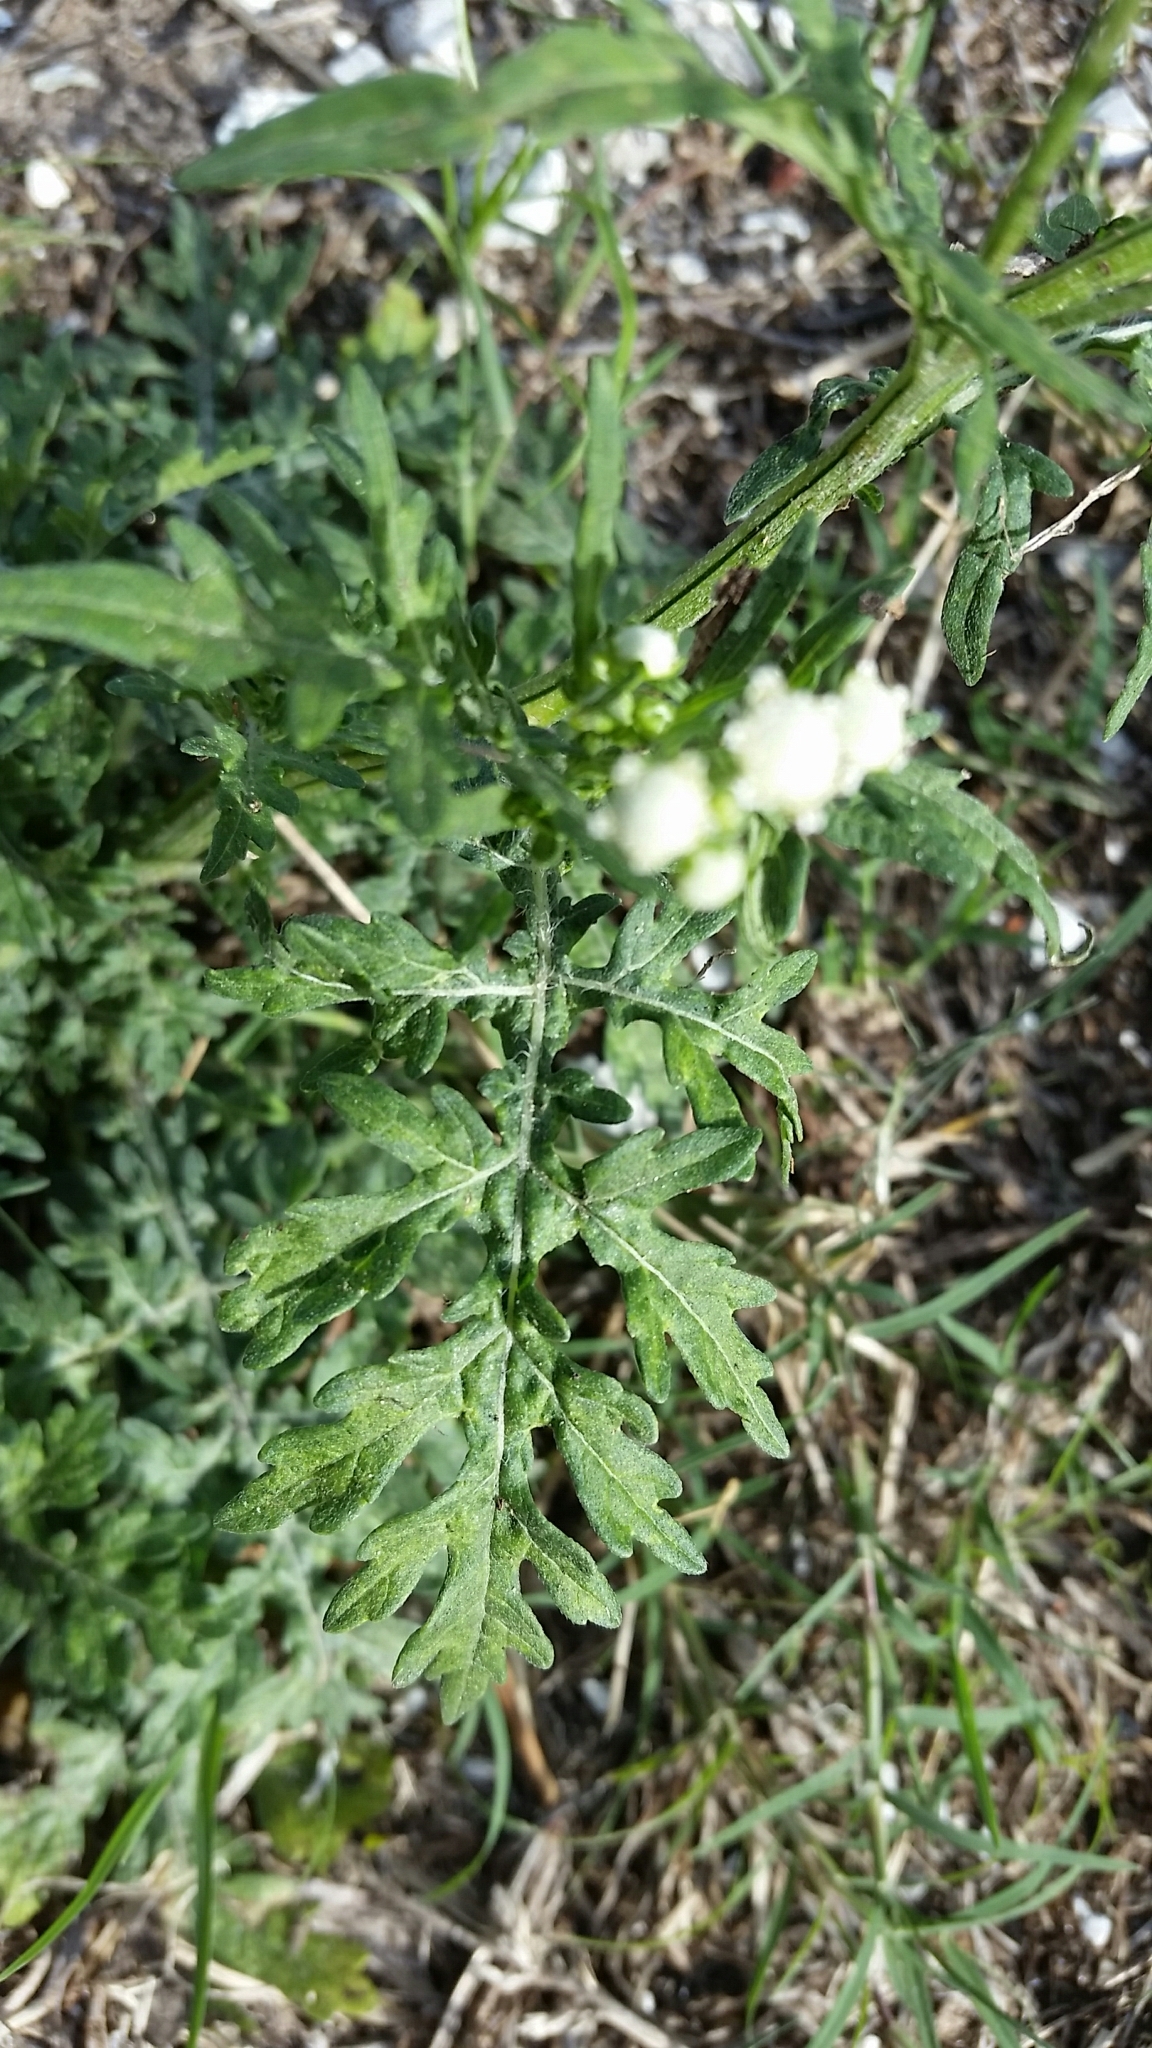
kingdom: Plantae
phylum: Tracheophyta
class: Magnoliopsida
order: Asterales
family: Asteraceae
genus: Parthenium
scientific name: Parthenium hysterophorus
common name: Santa maria feverfew
